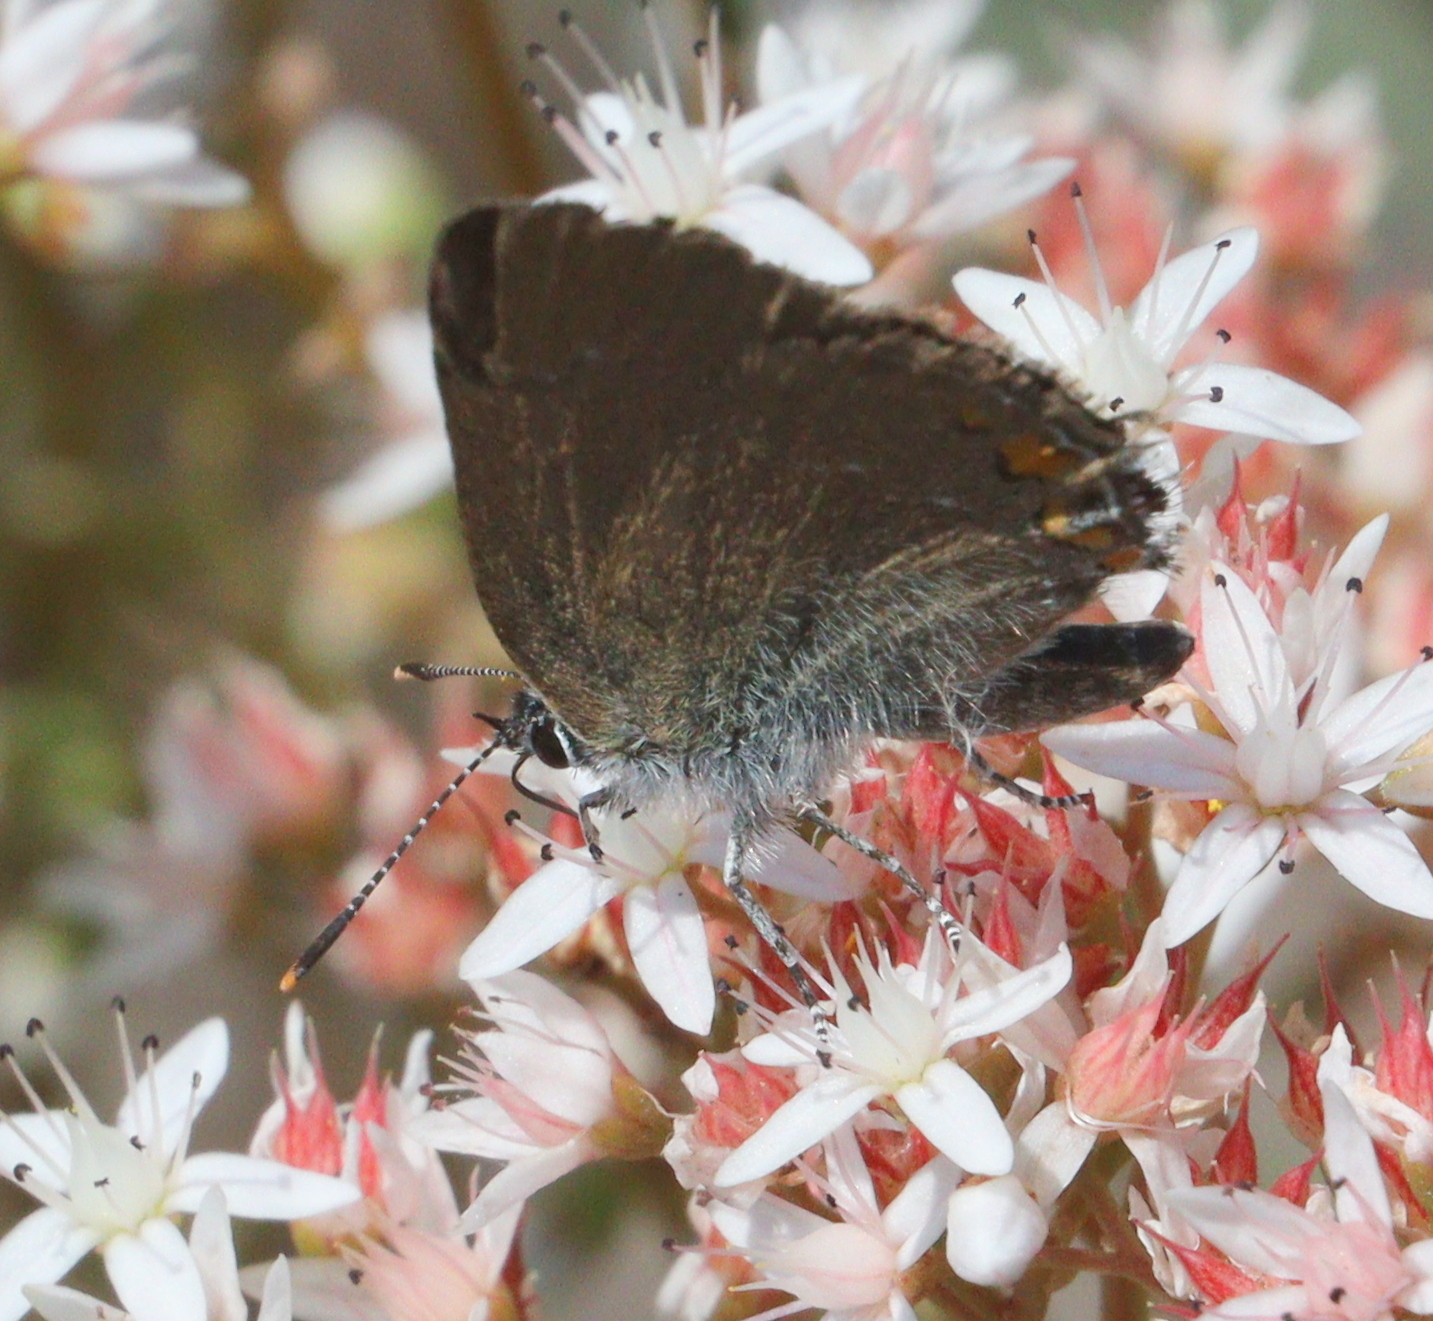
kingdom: Animalia
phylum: Arthropoda
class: Insecta
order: Lepidoptera
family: Lycaenidae
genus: Strymon
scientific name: Strymon acaciae
